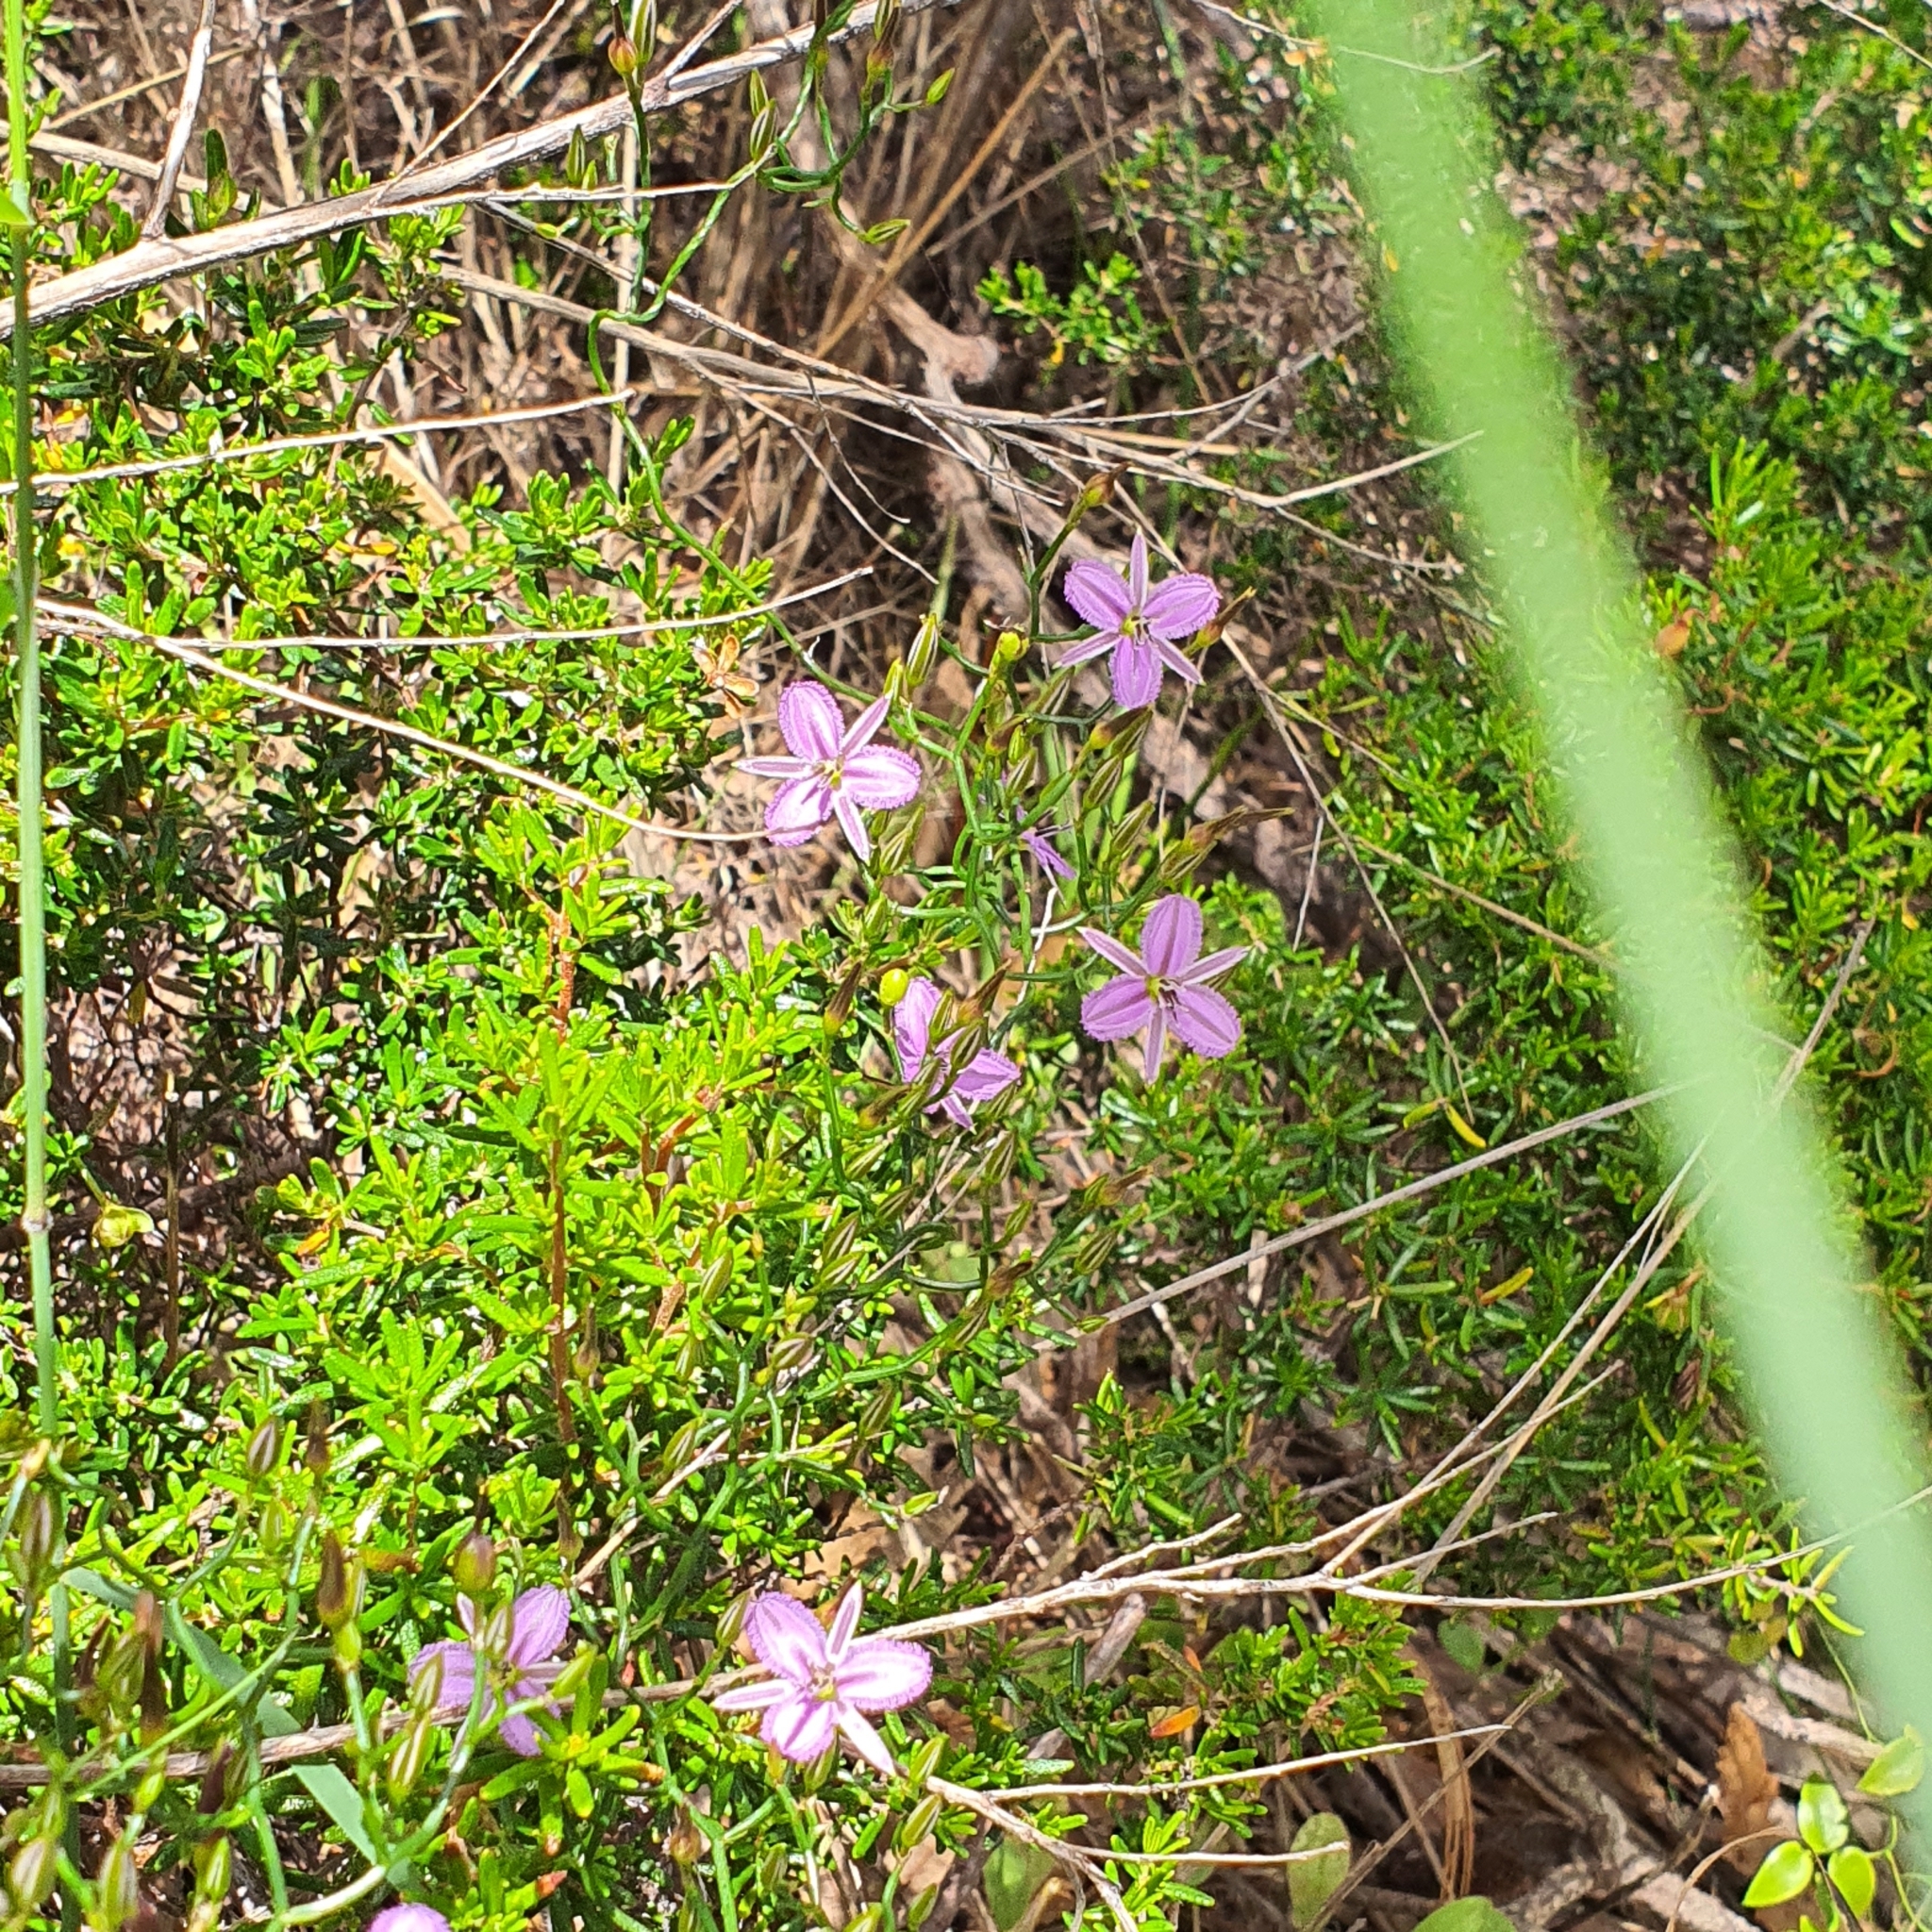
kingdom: Plantae
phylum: Tracheophyta
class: Liliopsida
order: Asparagales
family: Asparagaceae
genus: Thysanotus
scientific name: Thysanotus patersonii
